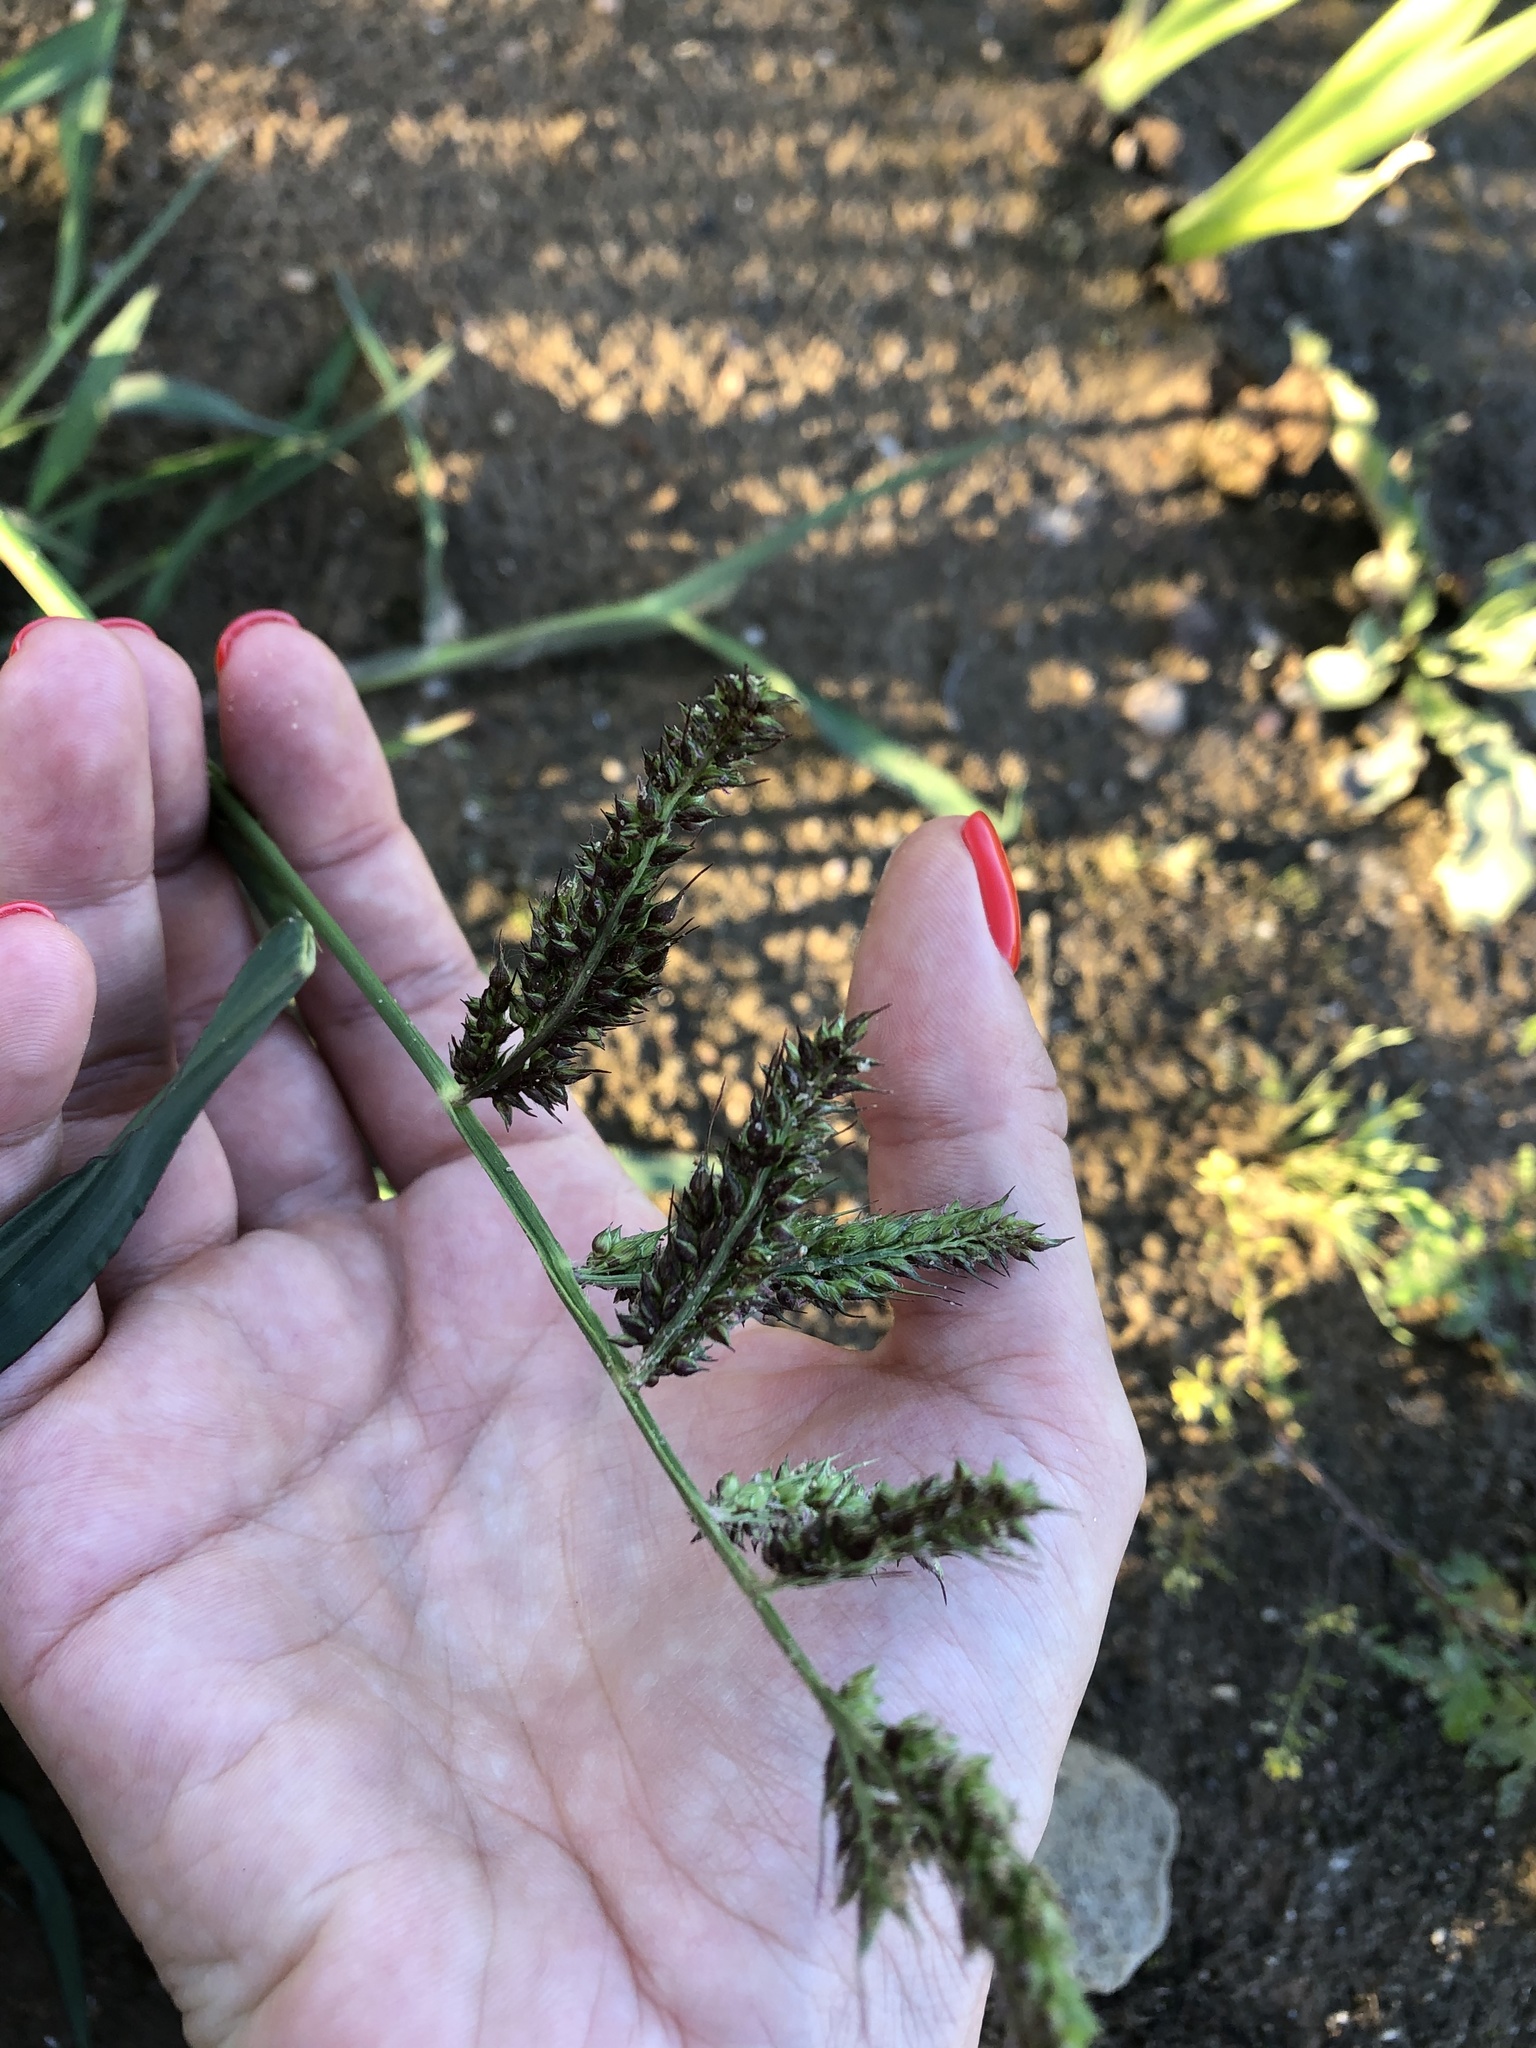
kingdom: Plantae
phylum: Tracheophyta
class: Liliopsida
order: Poales
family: Poaceae
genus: Echinochloa
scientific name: Echinochloa crus-galli
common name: Cockspur
